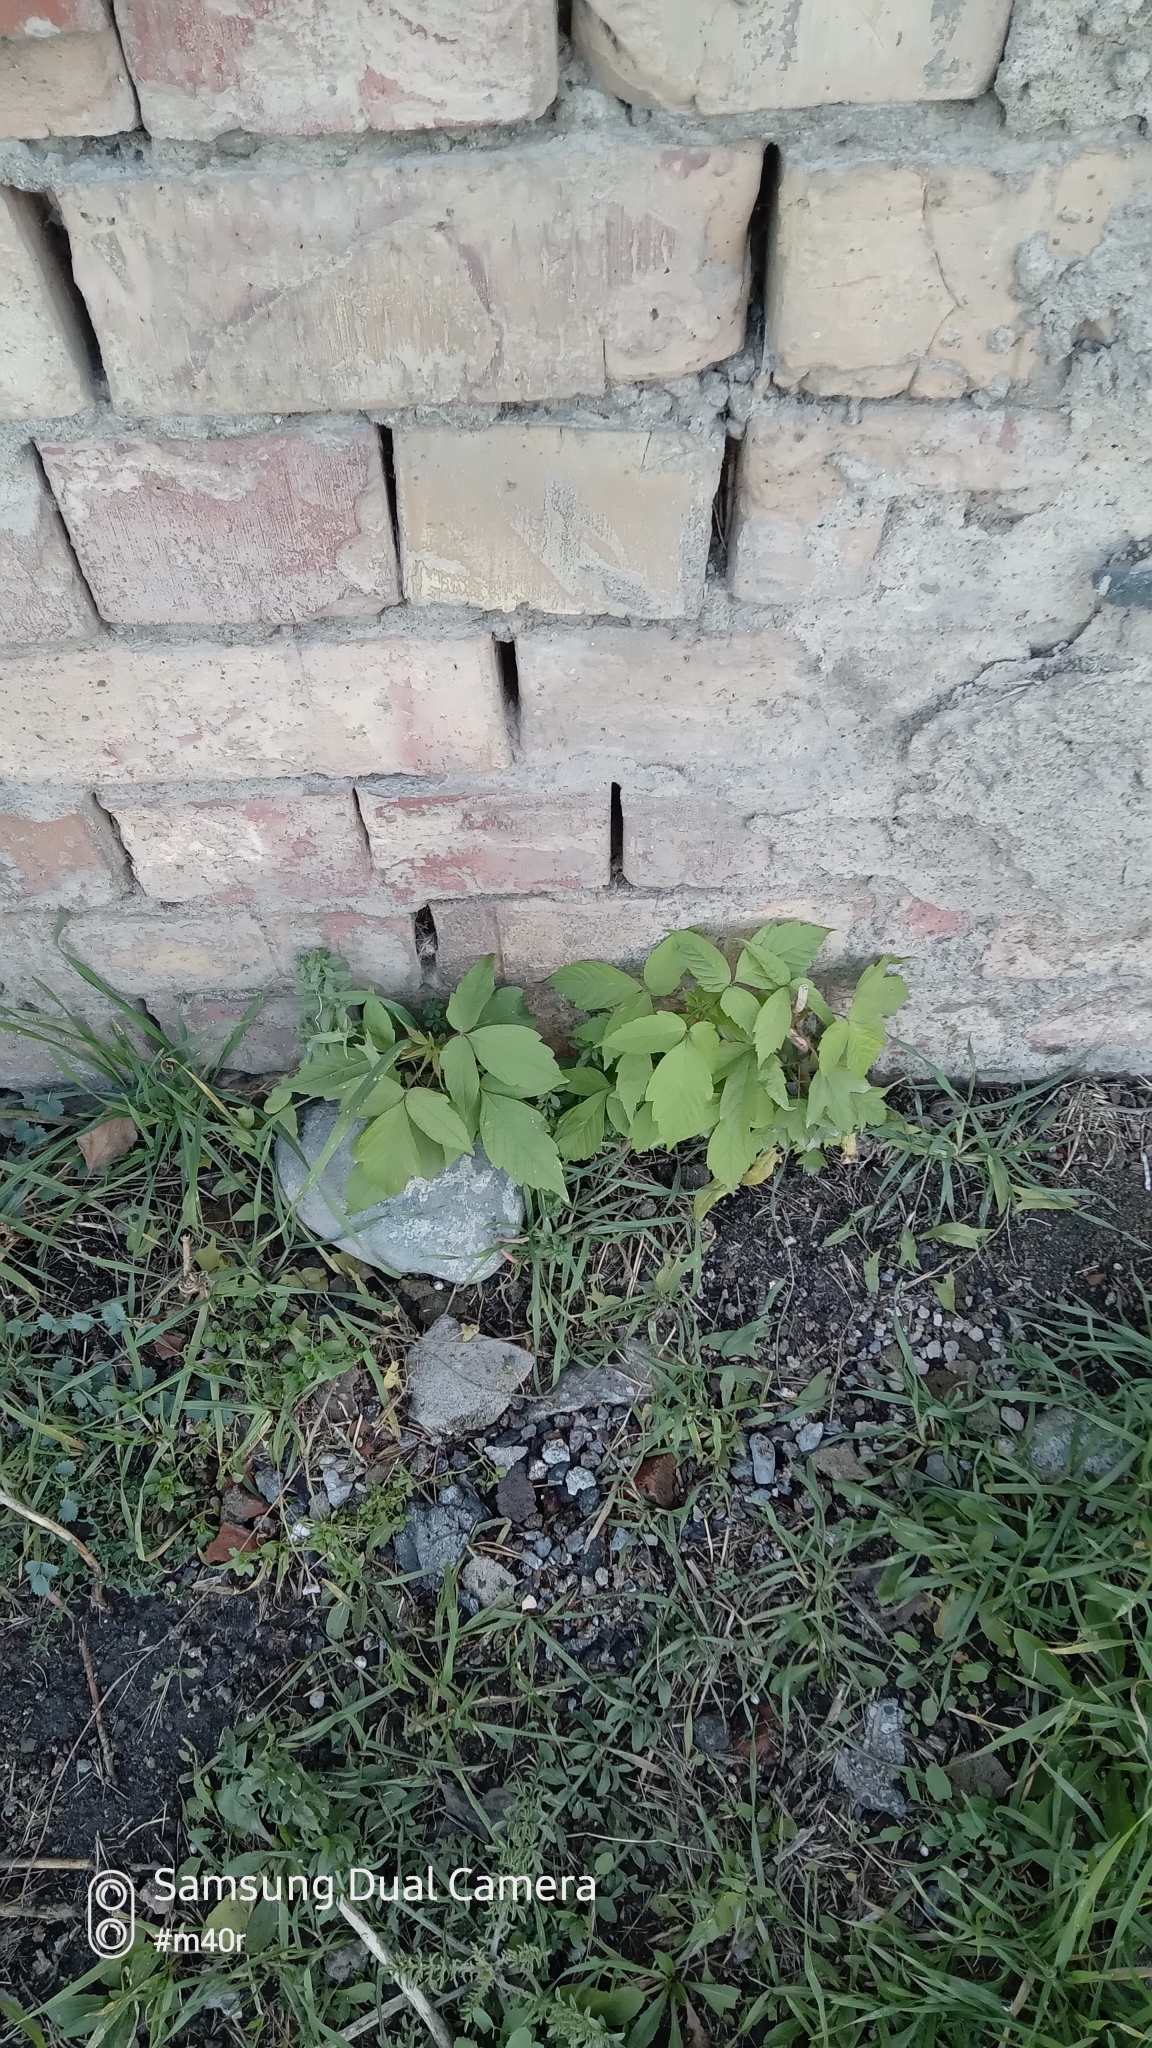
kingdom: Plantae
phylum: Tracheophyta
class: Magnoliopsida
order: Sapindales
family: Sapindaceae
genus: Acer
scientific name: Acer negundo
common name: Ashleaf maple
